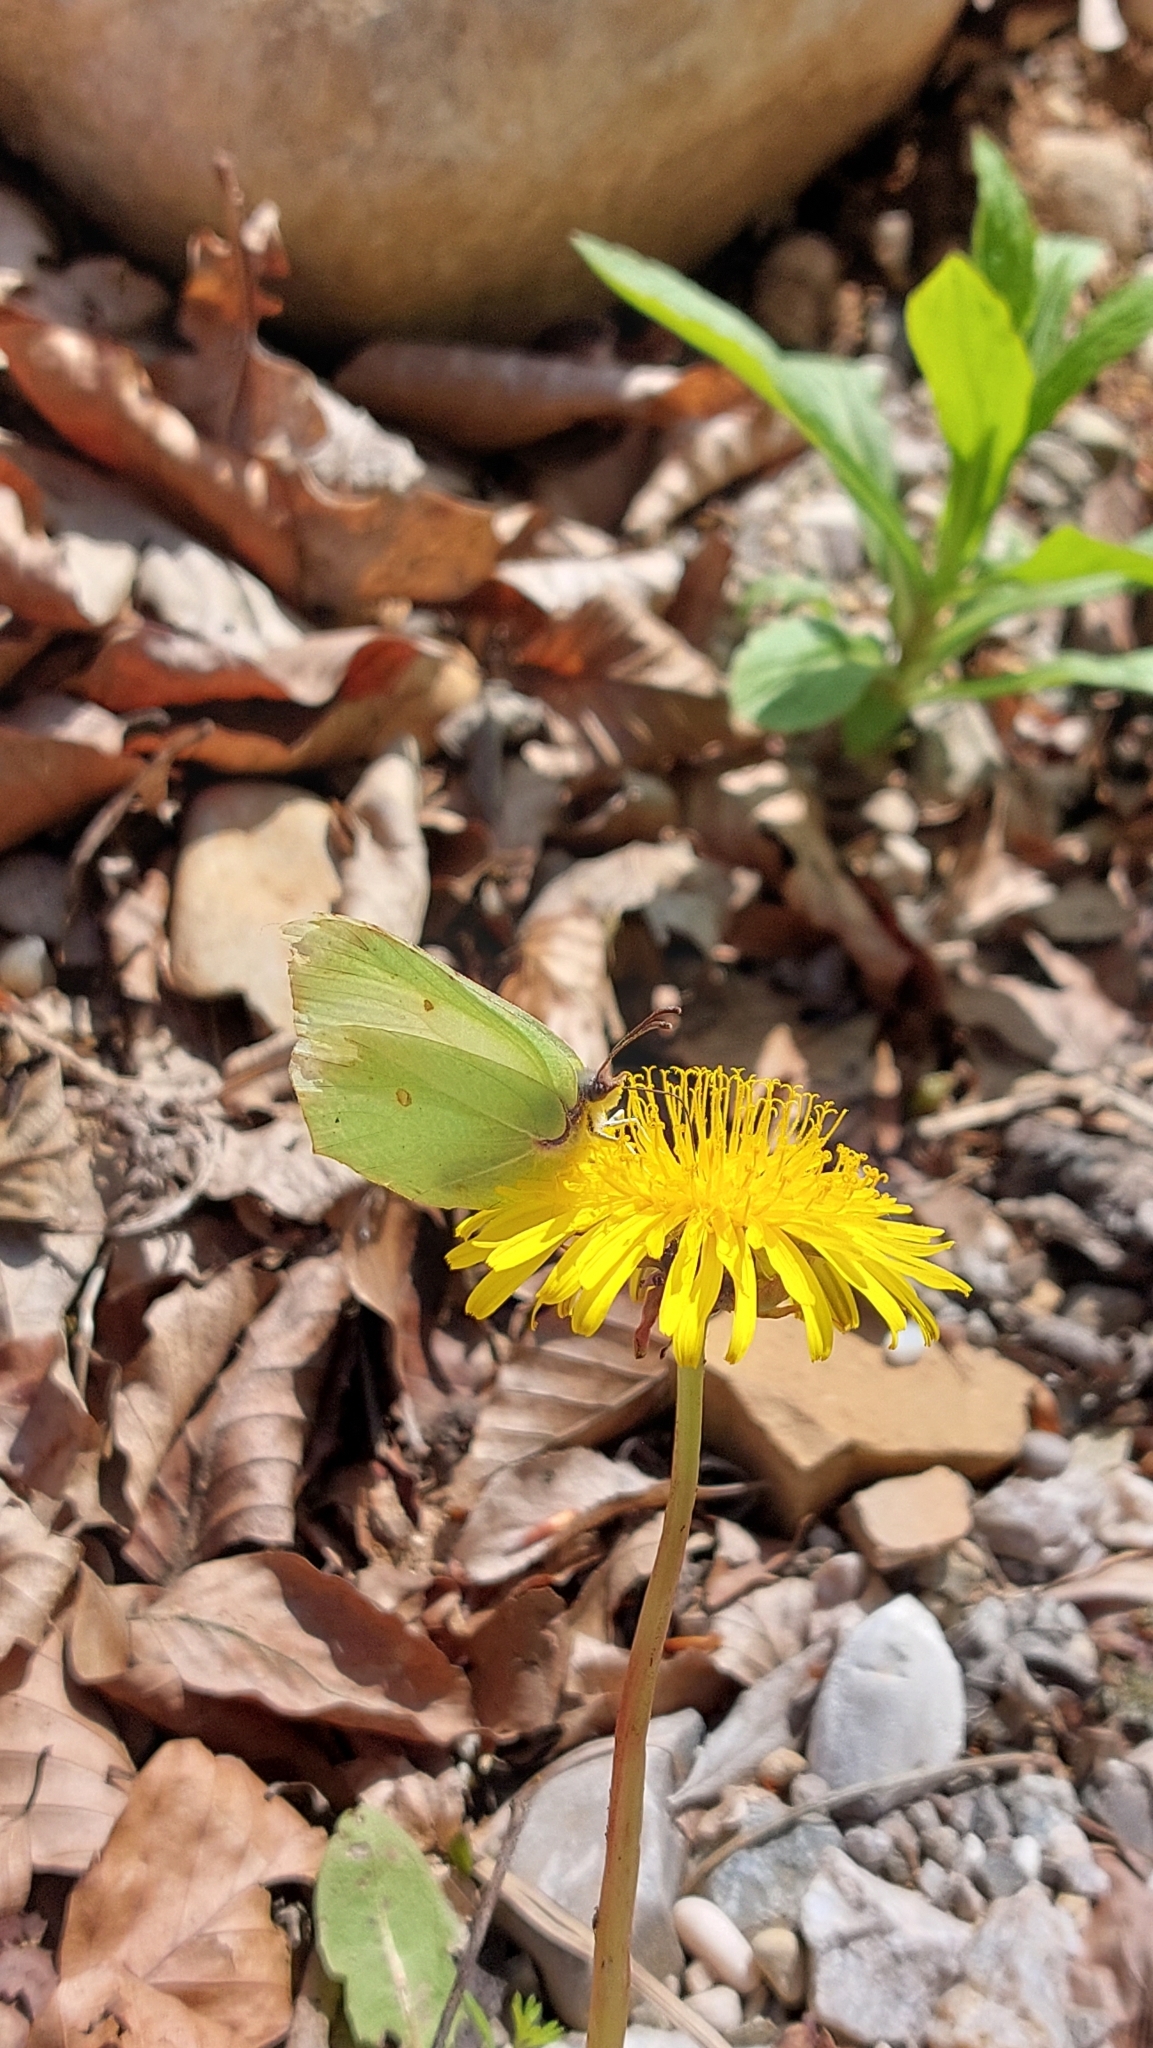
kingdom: Animalia
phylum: Arthropoda
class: Insecta
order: Lepidoptera
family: Pieridae
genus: Gonepteryx
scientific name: Gonepteryx rhamni
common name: Brimstone
